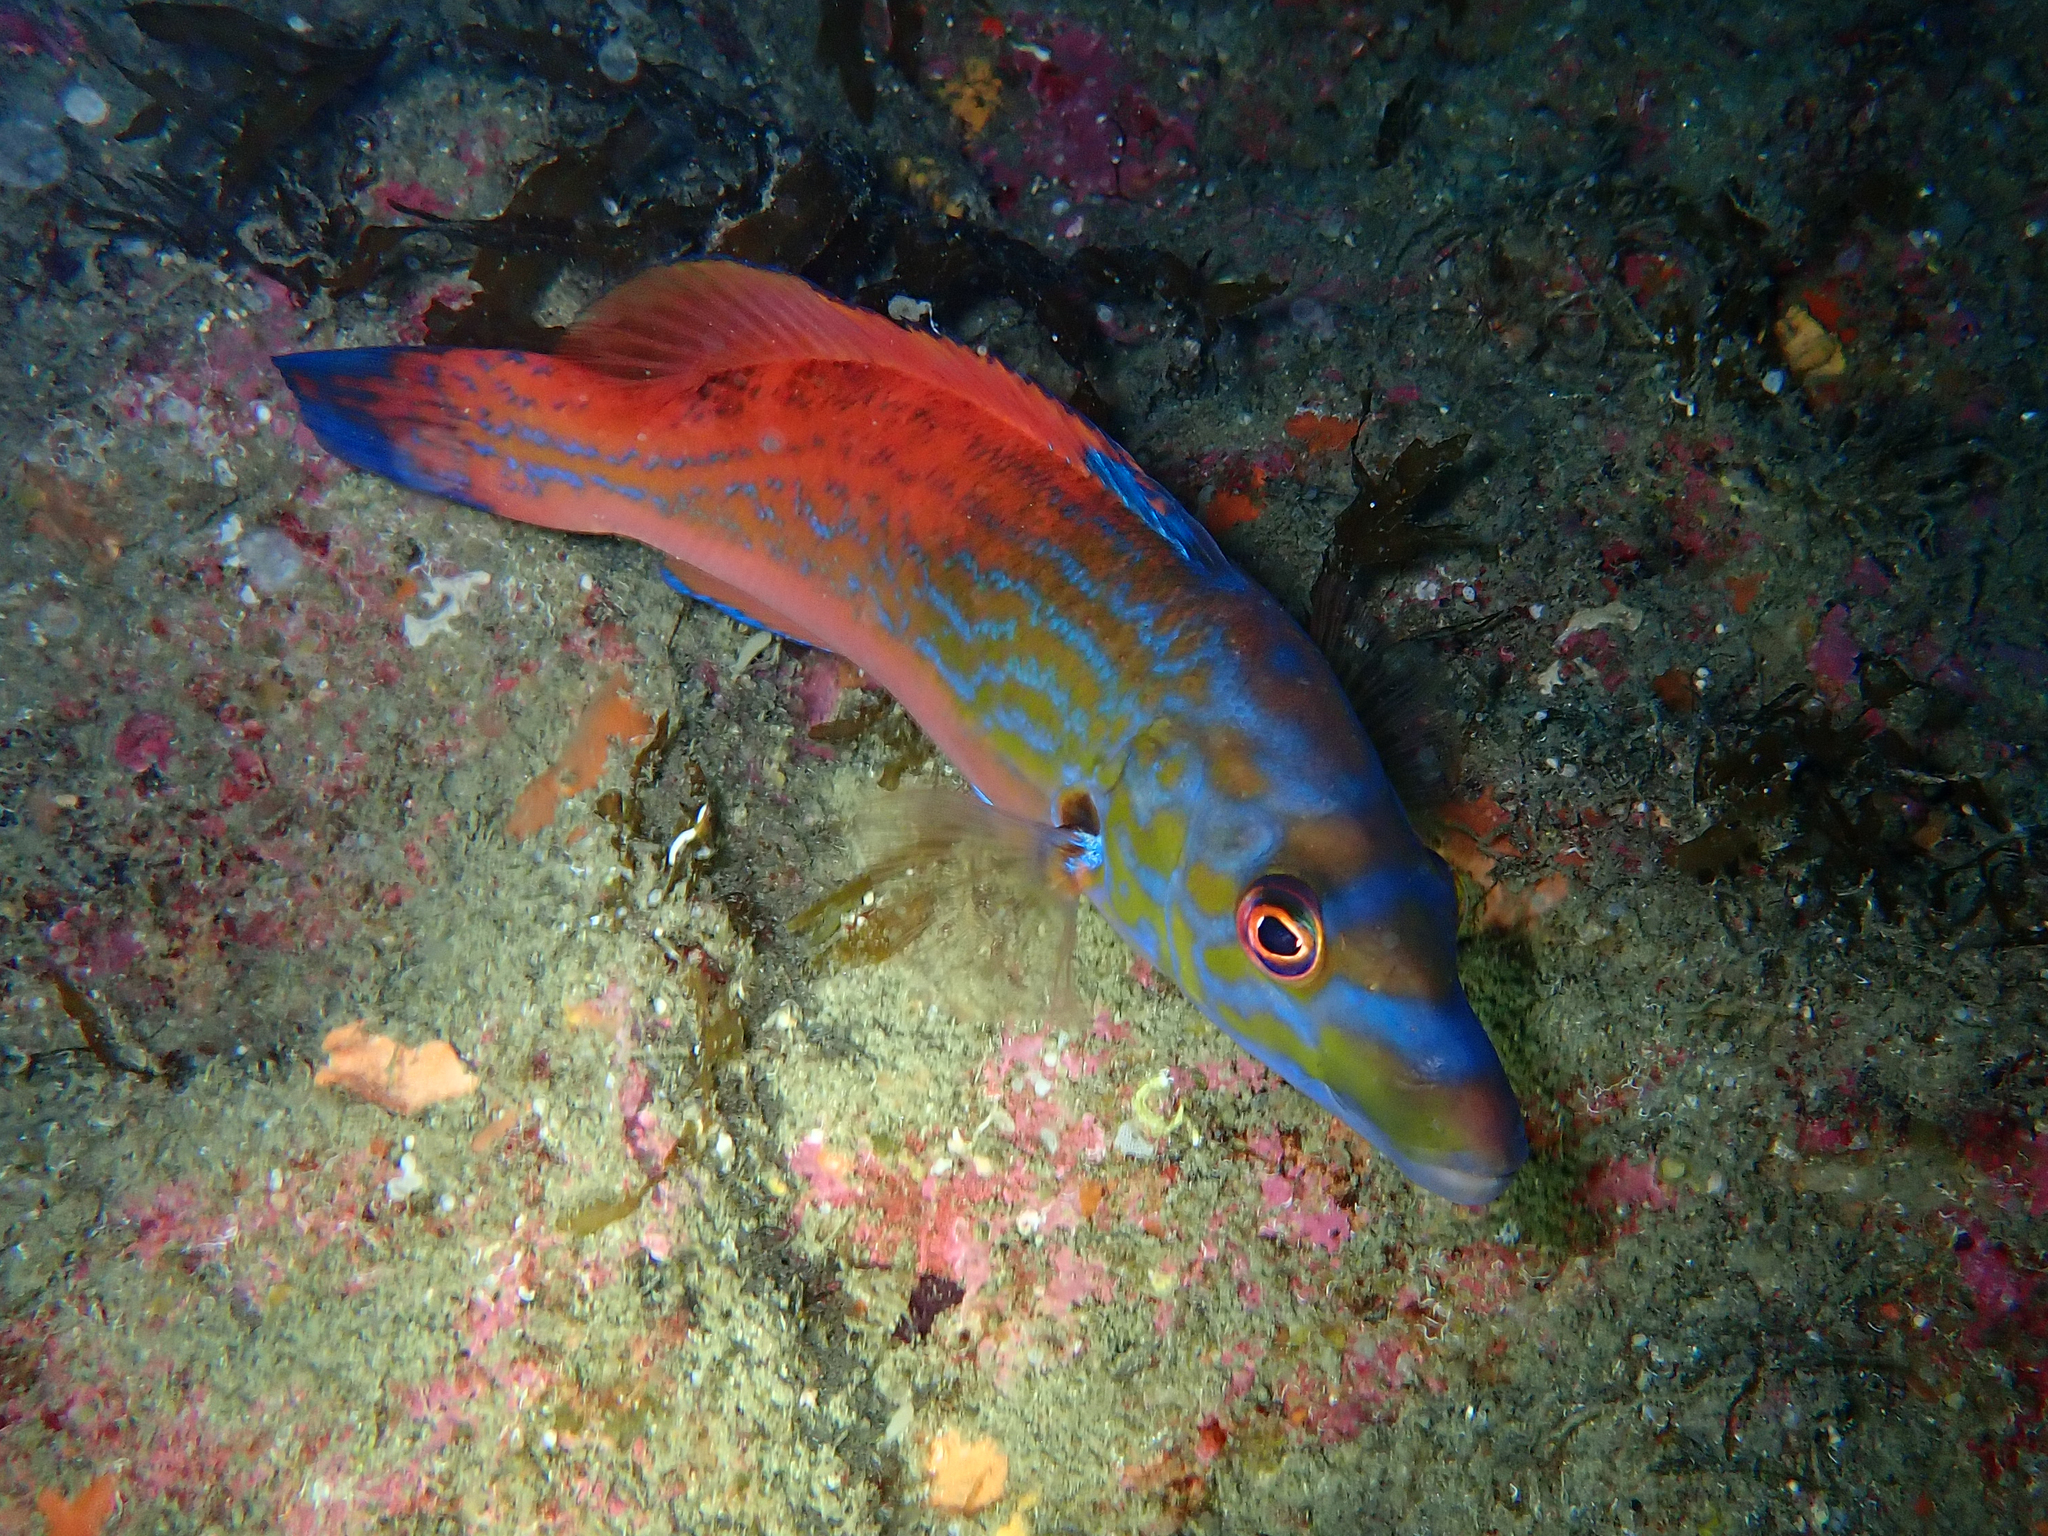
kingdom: Animalia
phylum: Chordata
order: Perciformes
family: Labridae
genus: Labrus
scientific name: Labrus mixtus
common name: Cuckoo wrasse
